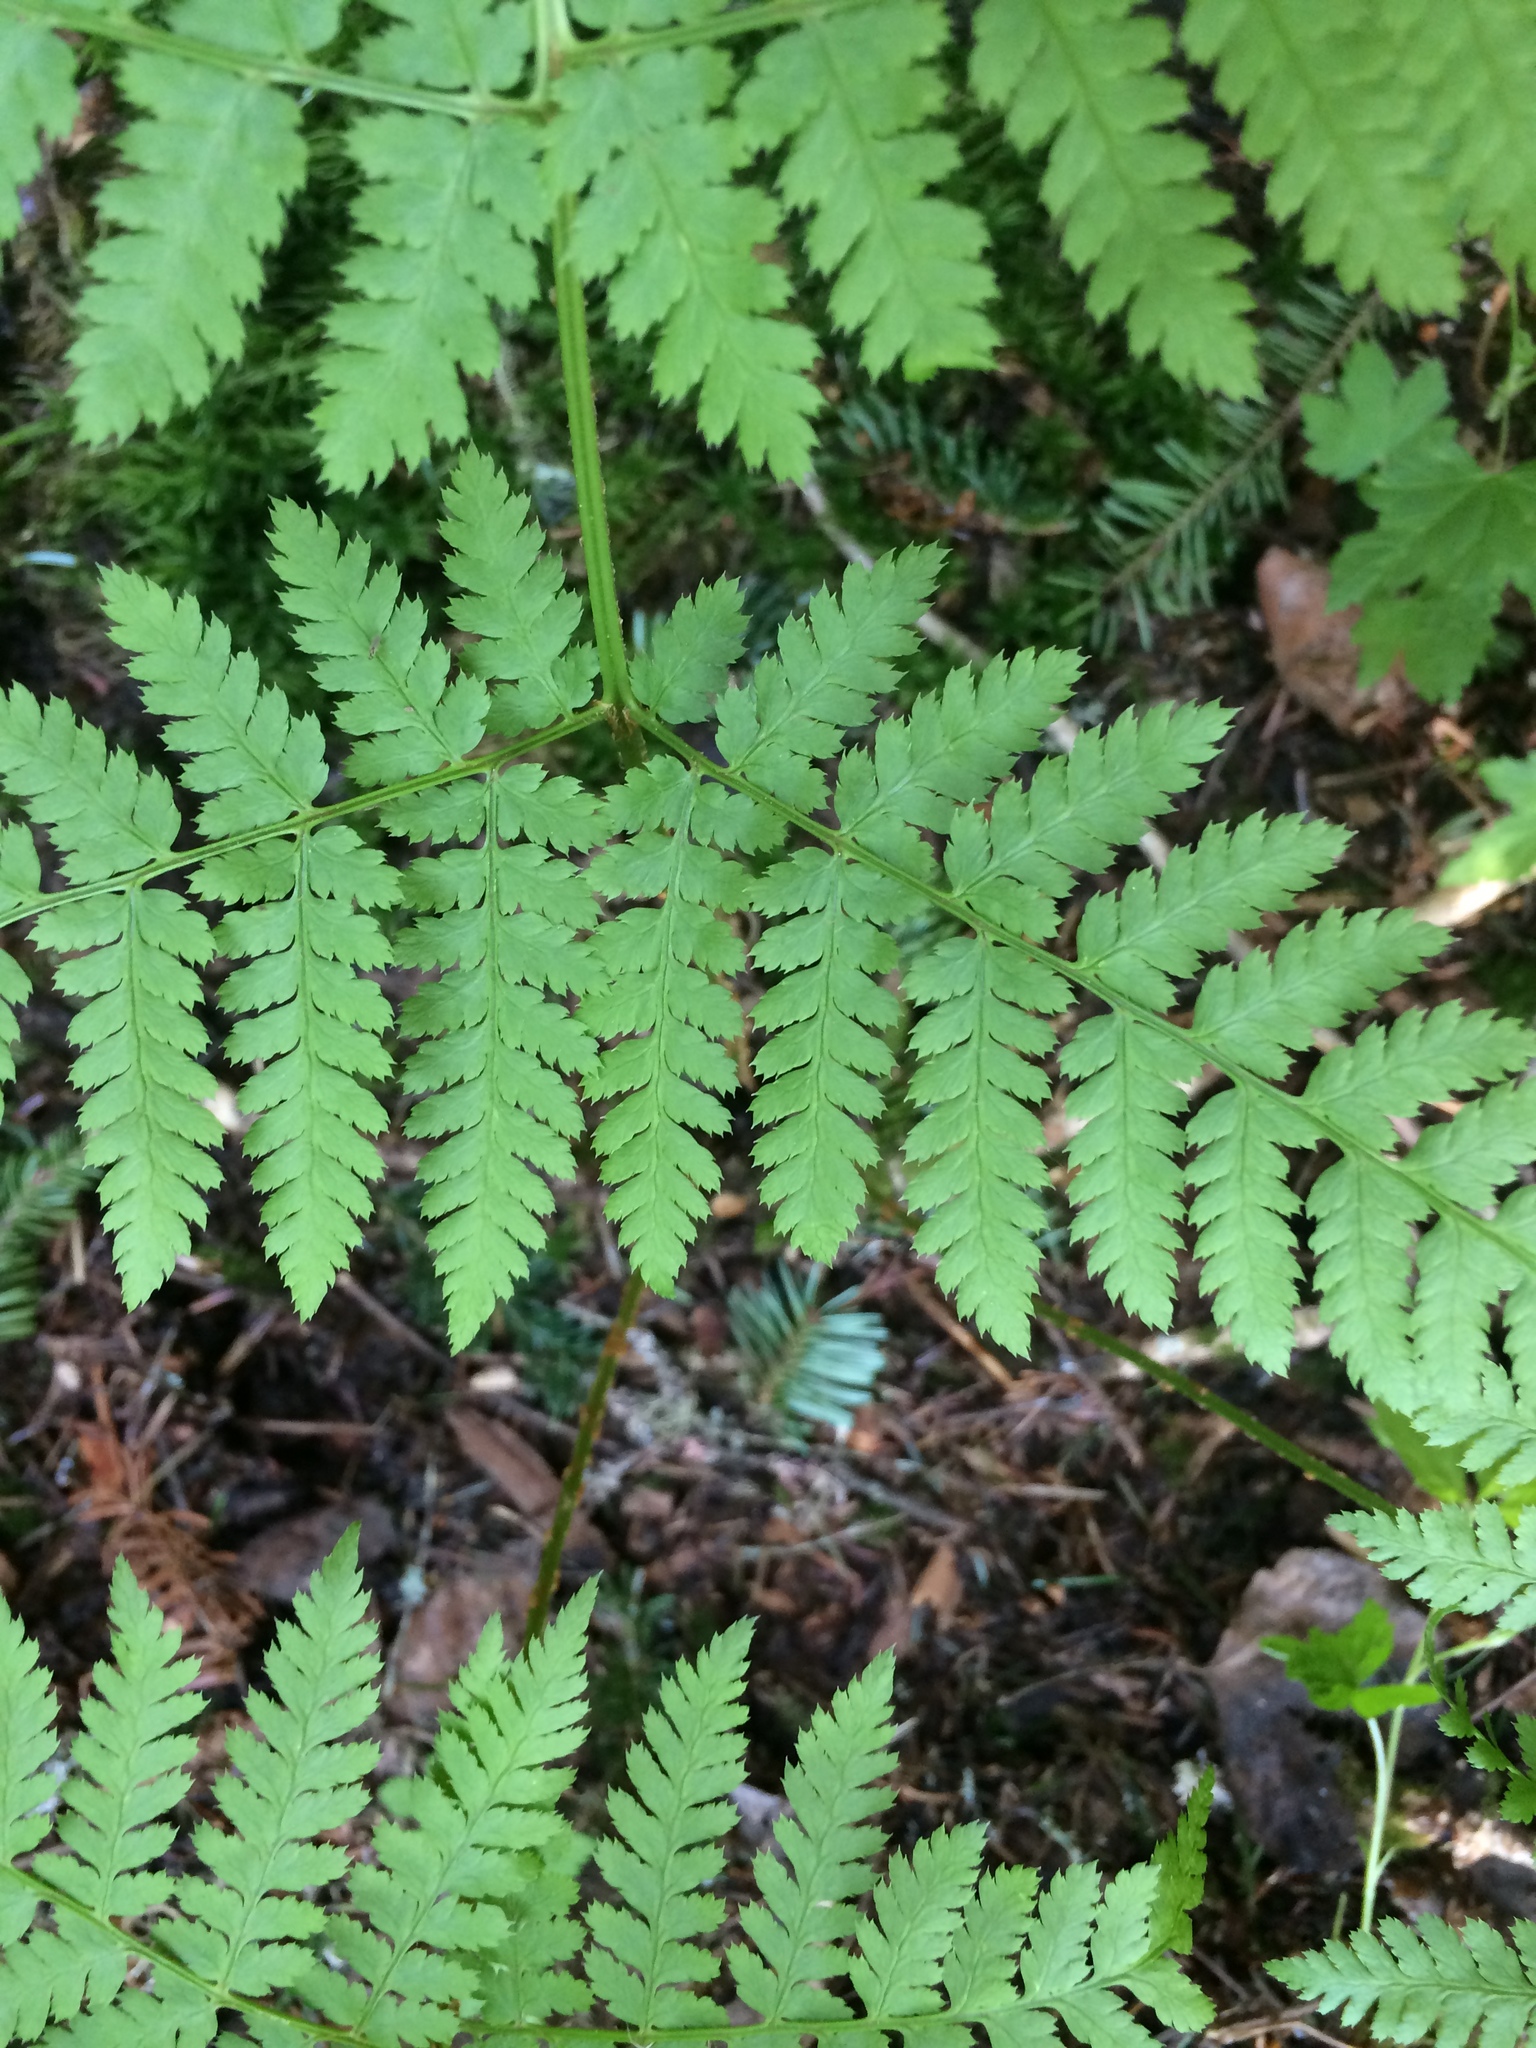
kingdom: Plantae
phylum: Tracheophyta
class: Polypodiopsida
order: Polypodiales
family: Dryopteridaceae
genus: Dryopteris
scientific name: Dryopteris intermedia
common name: Evergreen wood fern
